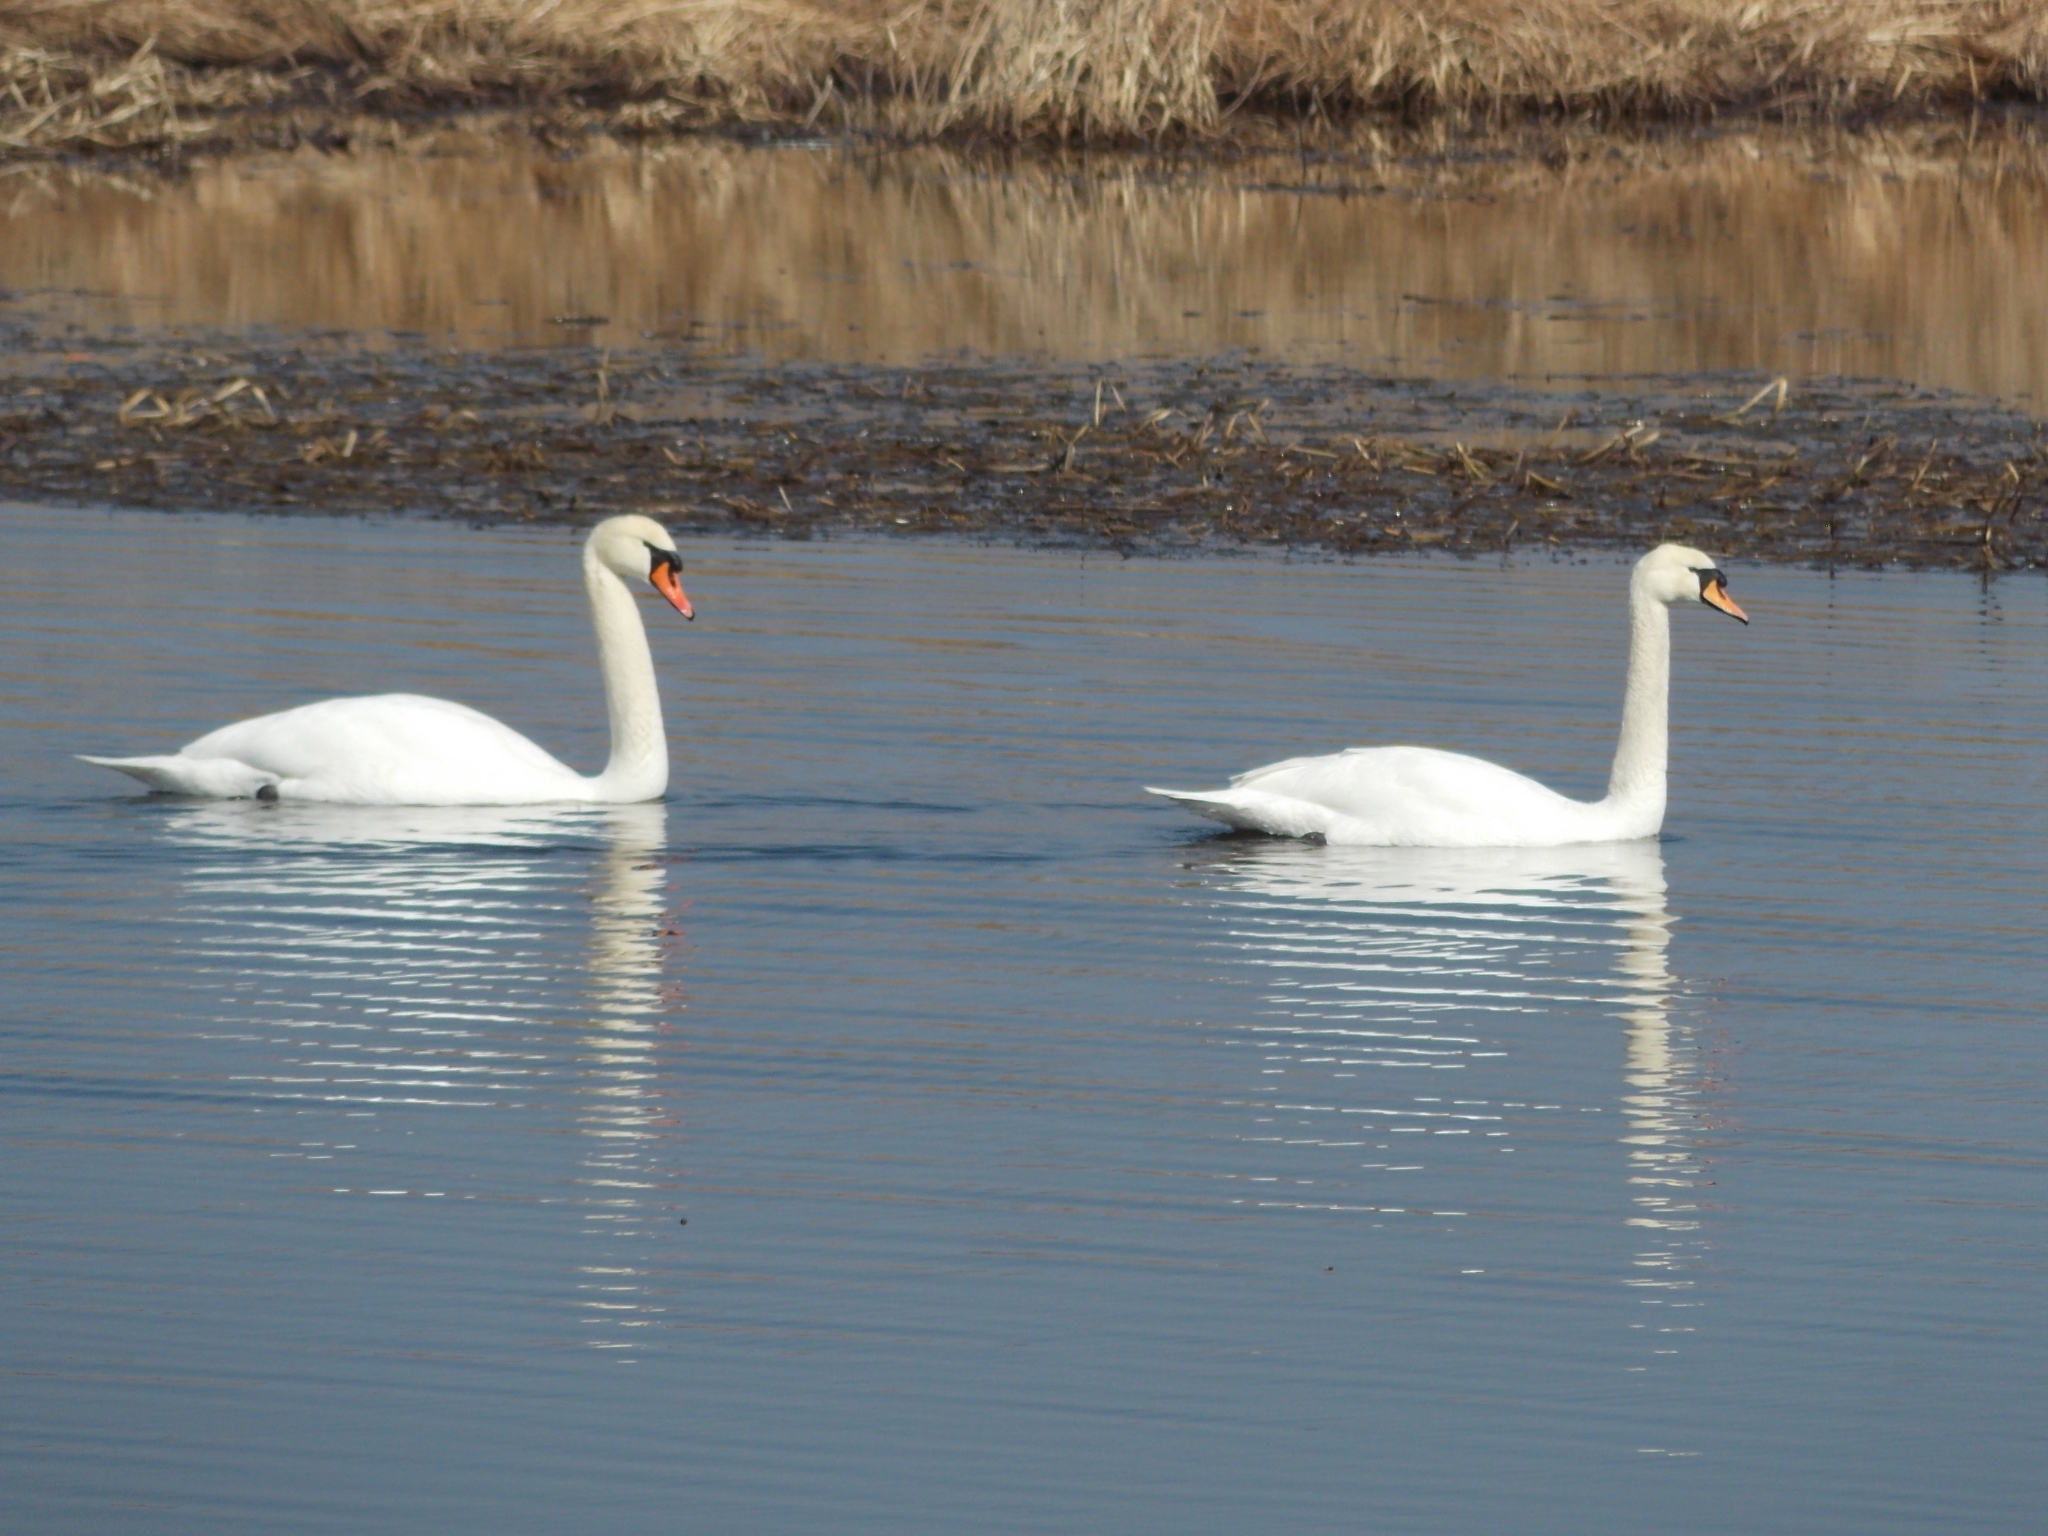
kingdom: Animalia
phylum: Chordata
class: Aves
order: Anseriformes
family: Anatidae
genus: Cygnus
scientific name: Cygnus olor
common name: Mute swan
